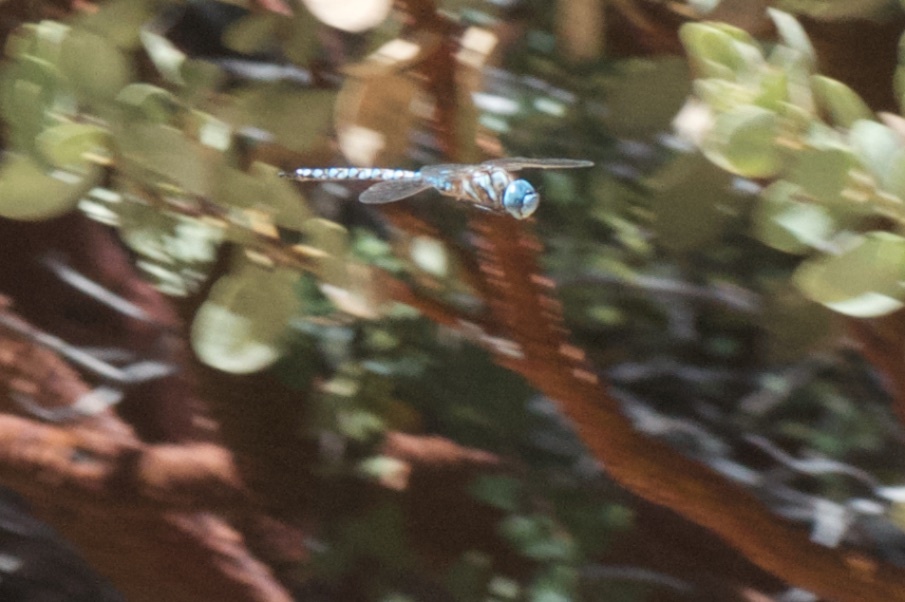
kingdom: Animalia
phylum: Arthropoda
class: Insecta
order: Odonata
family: Aeshnidae
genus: Rhionaeschna
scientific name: Rhionaeschna multicolor
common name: Blue-eyed darner
